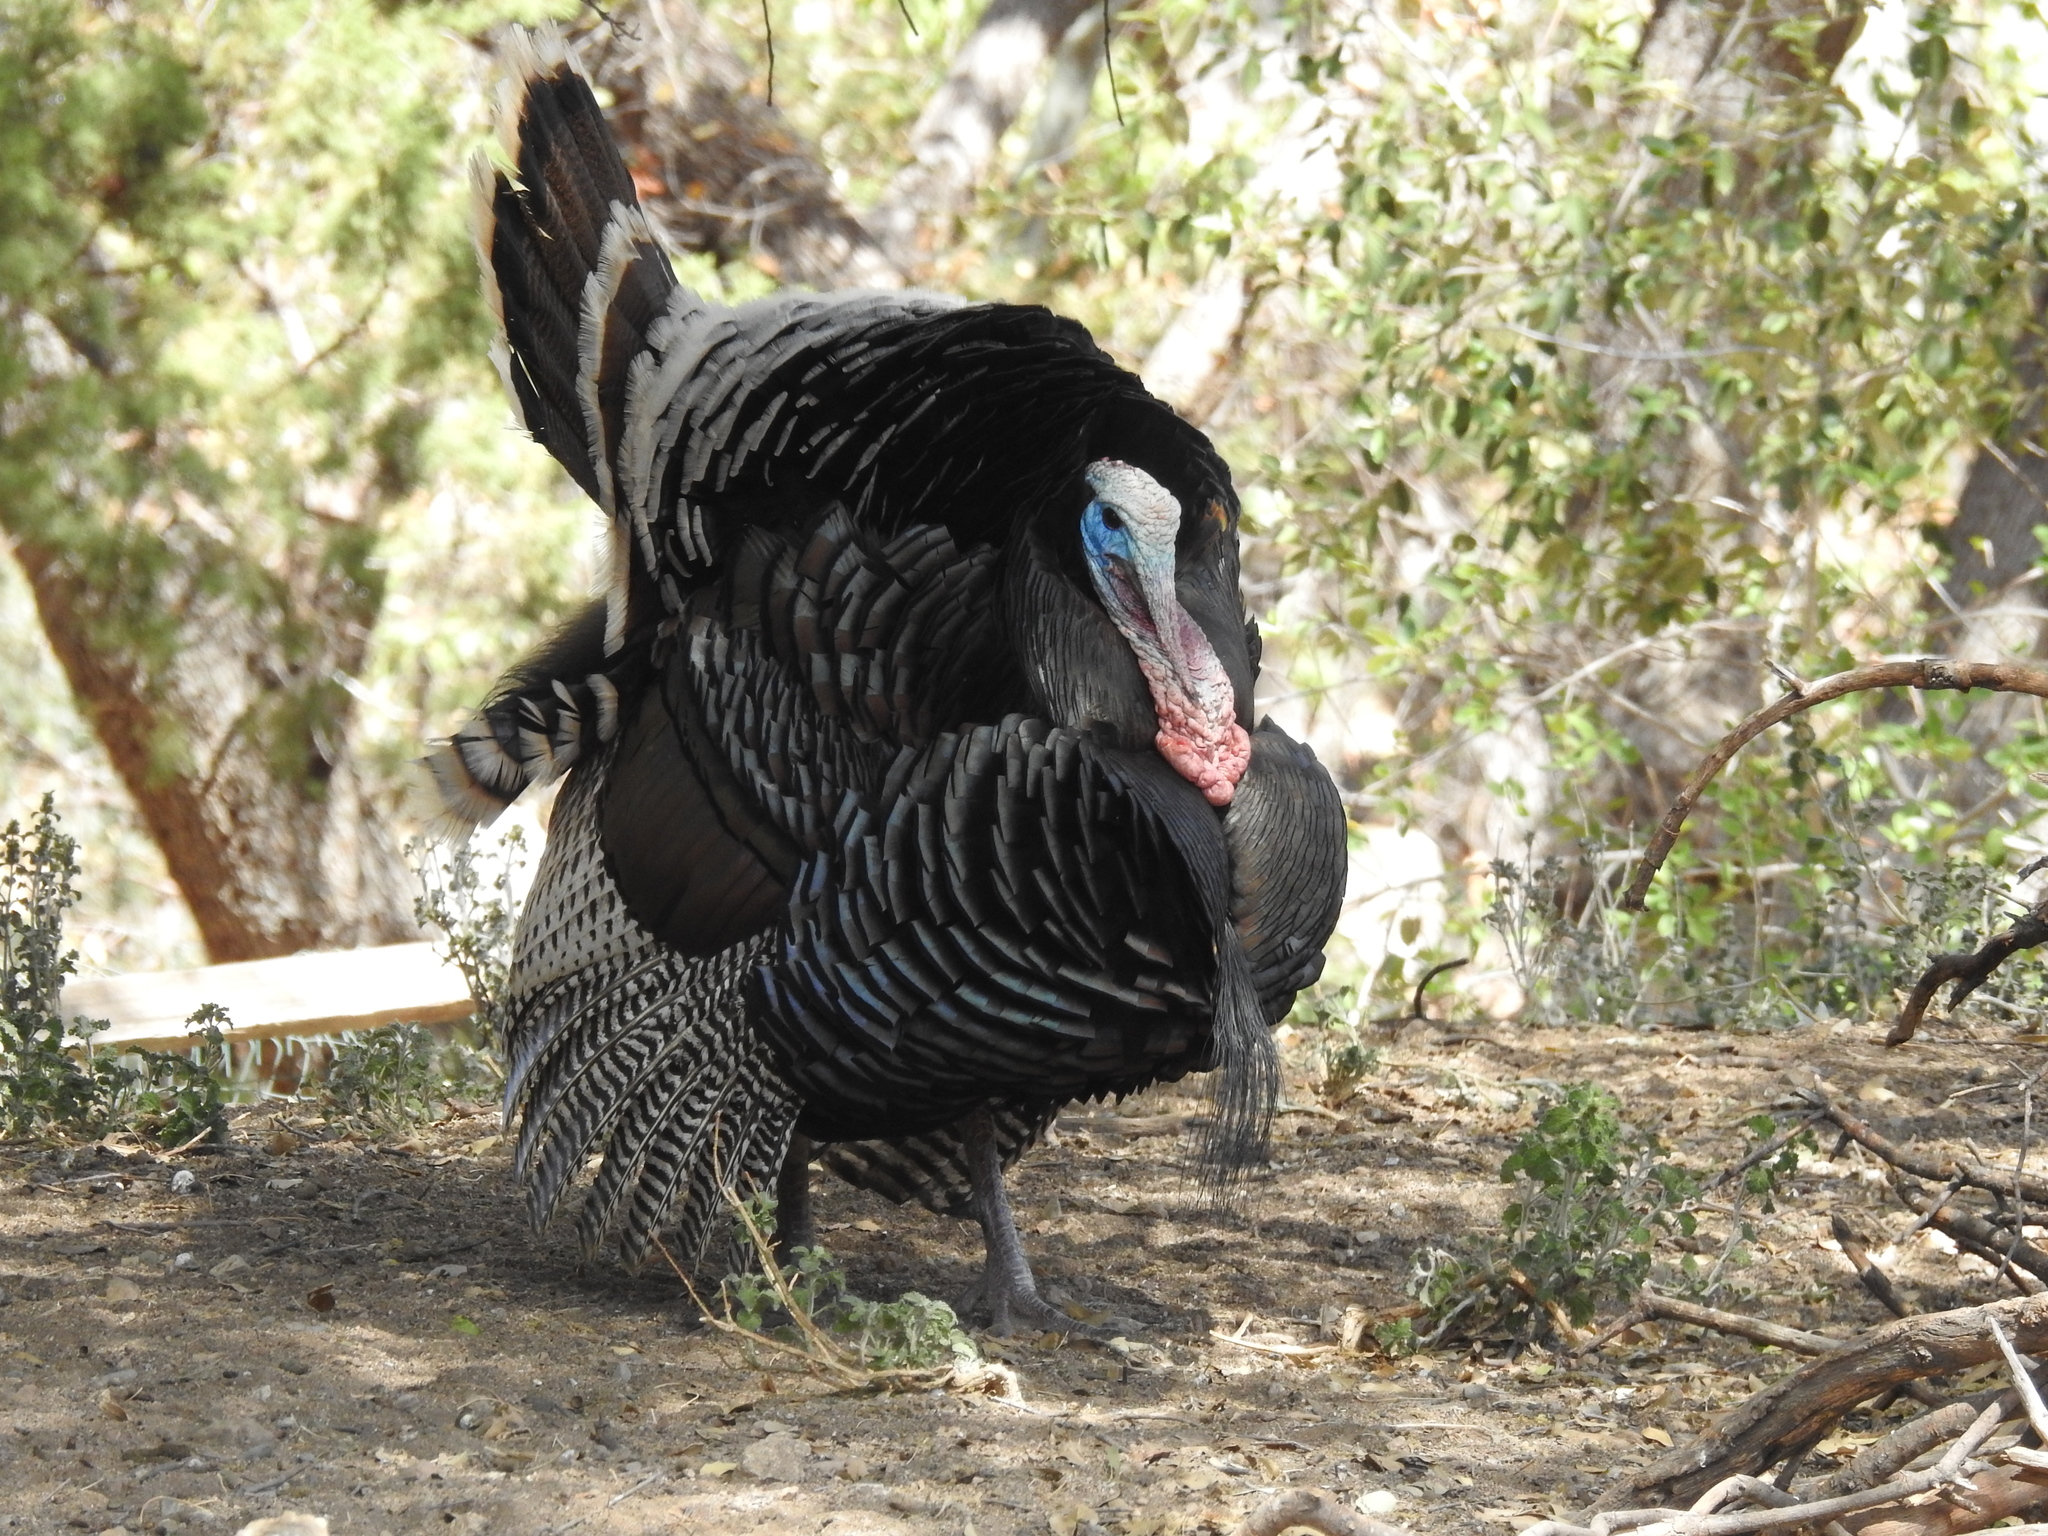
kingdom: Animalia
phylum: Chordata
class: Aves
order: Galliformes
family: Phasianidae
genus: Meleagris
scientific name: Meleagris gallopavo
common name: Wild turkey
